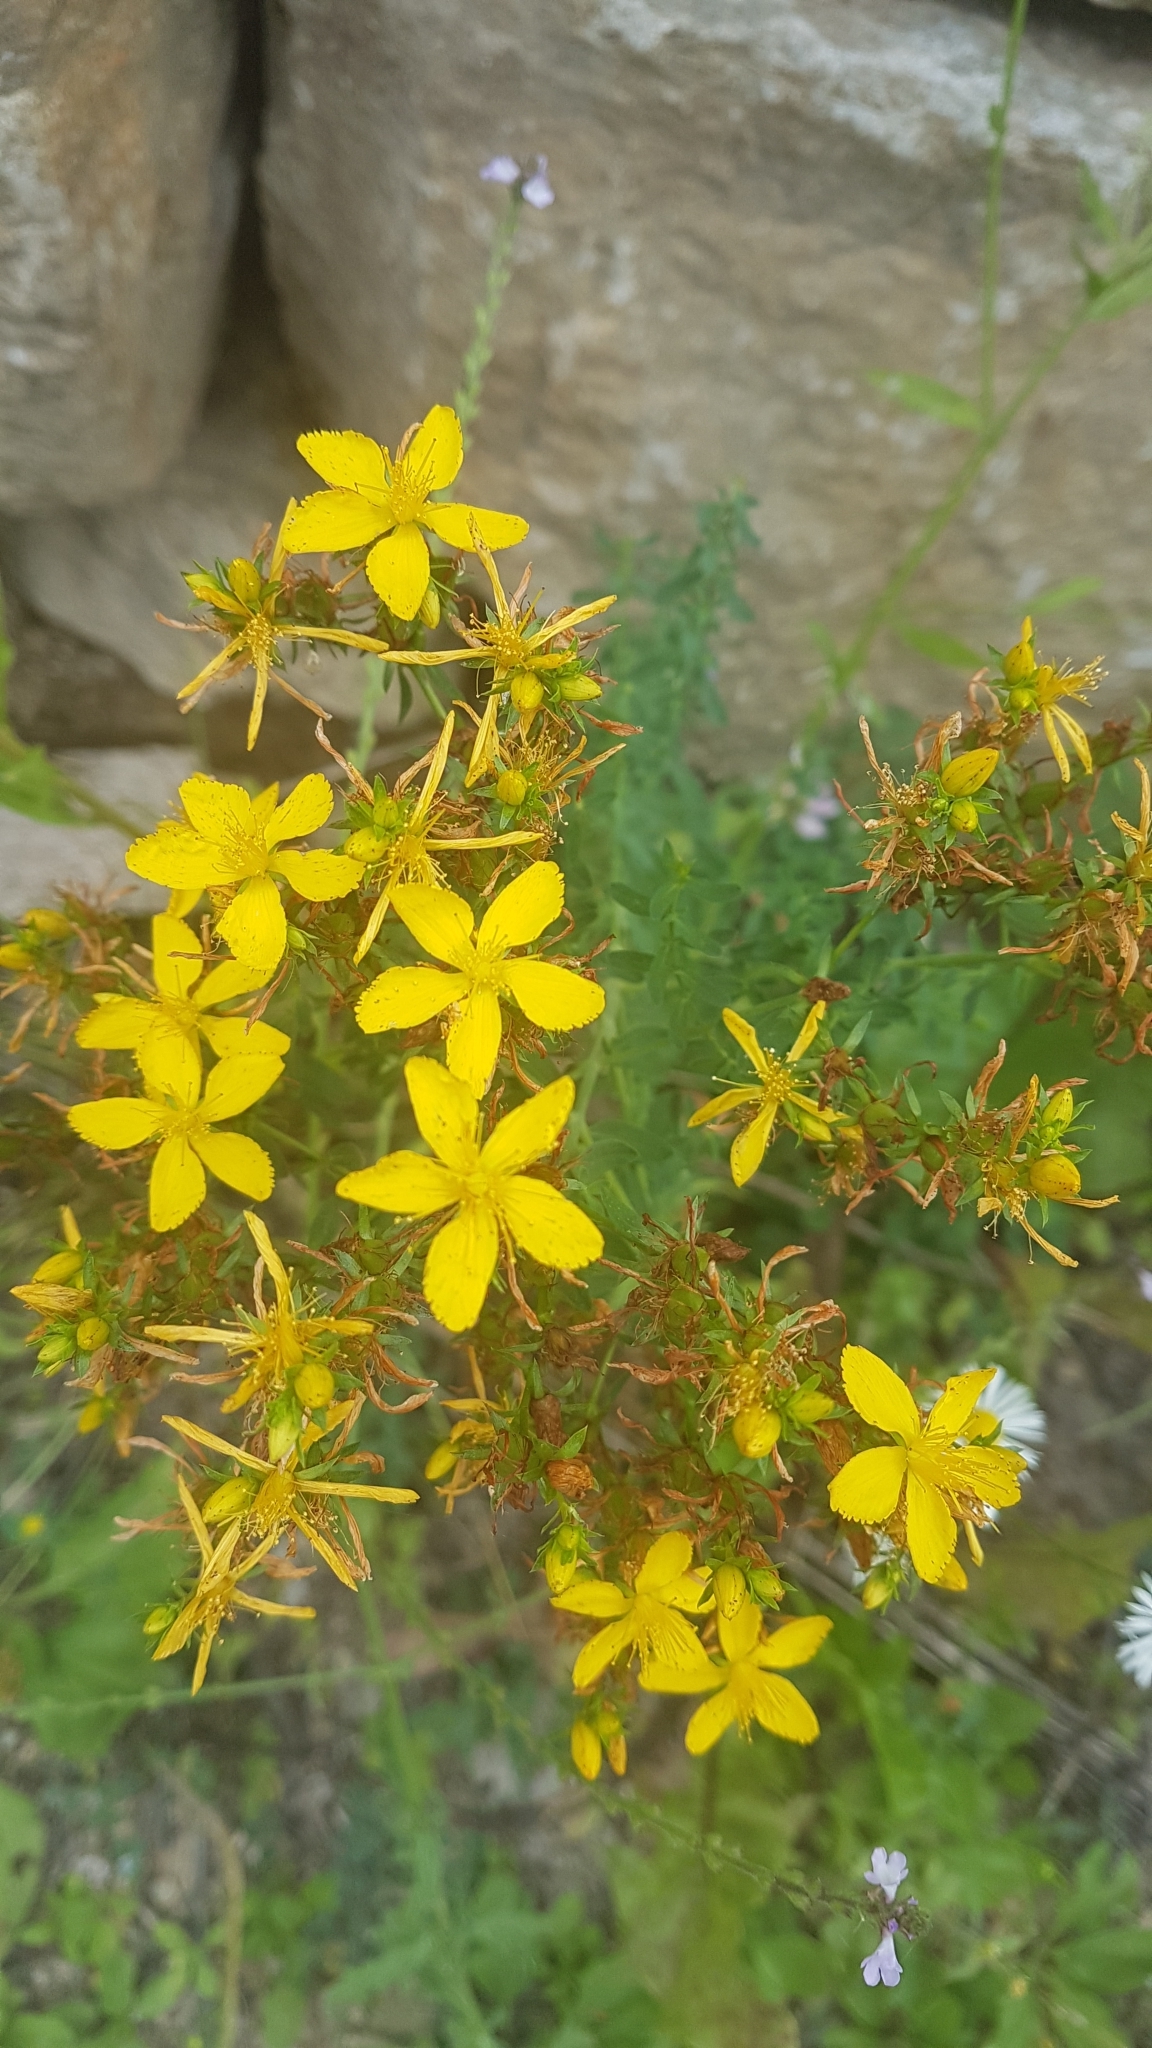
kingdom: Plantae
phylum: Tracheophyta
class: Magnoliopsida
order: Malpighiales
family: Hypericaceae
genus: Hypericum
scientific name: Hypericum perforatum
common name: Common st. johnswort
